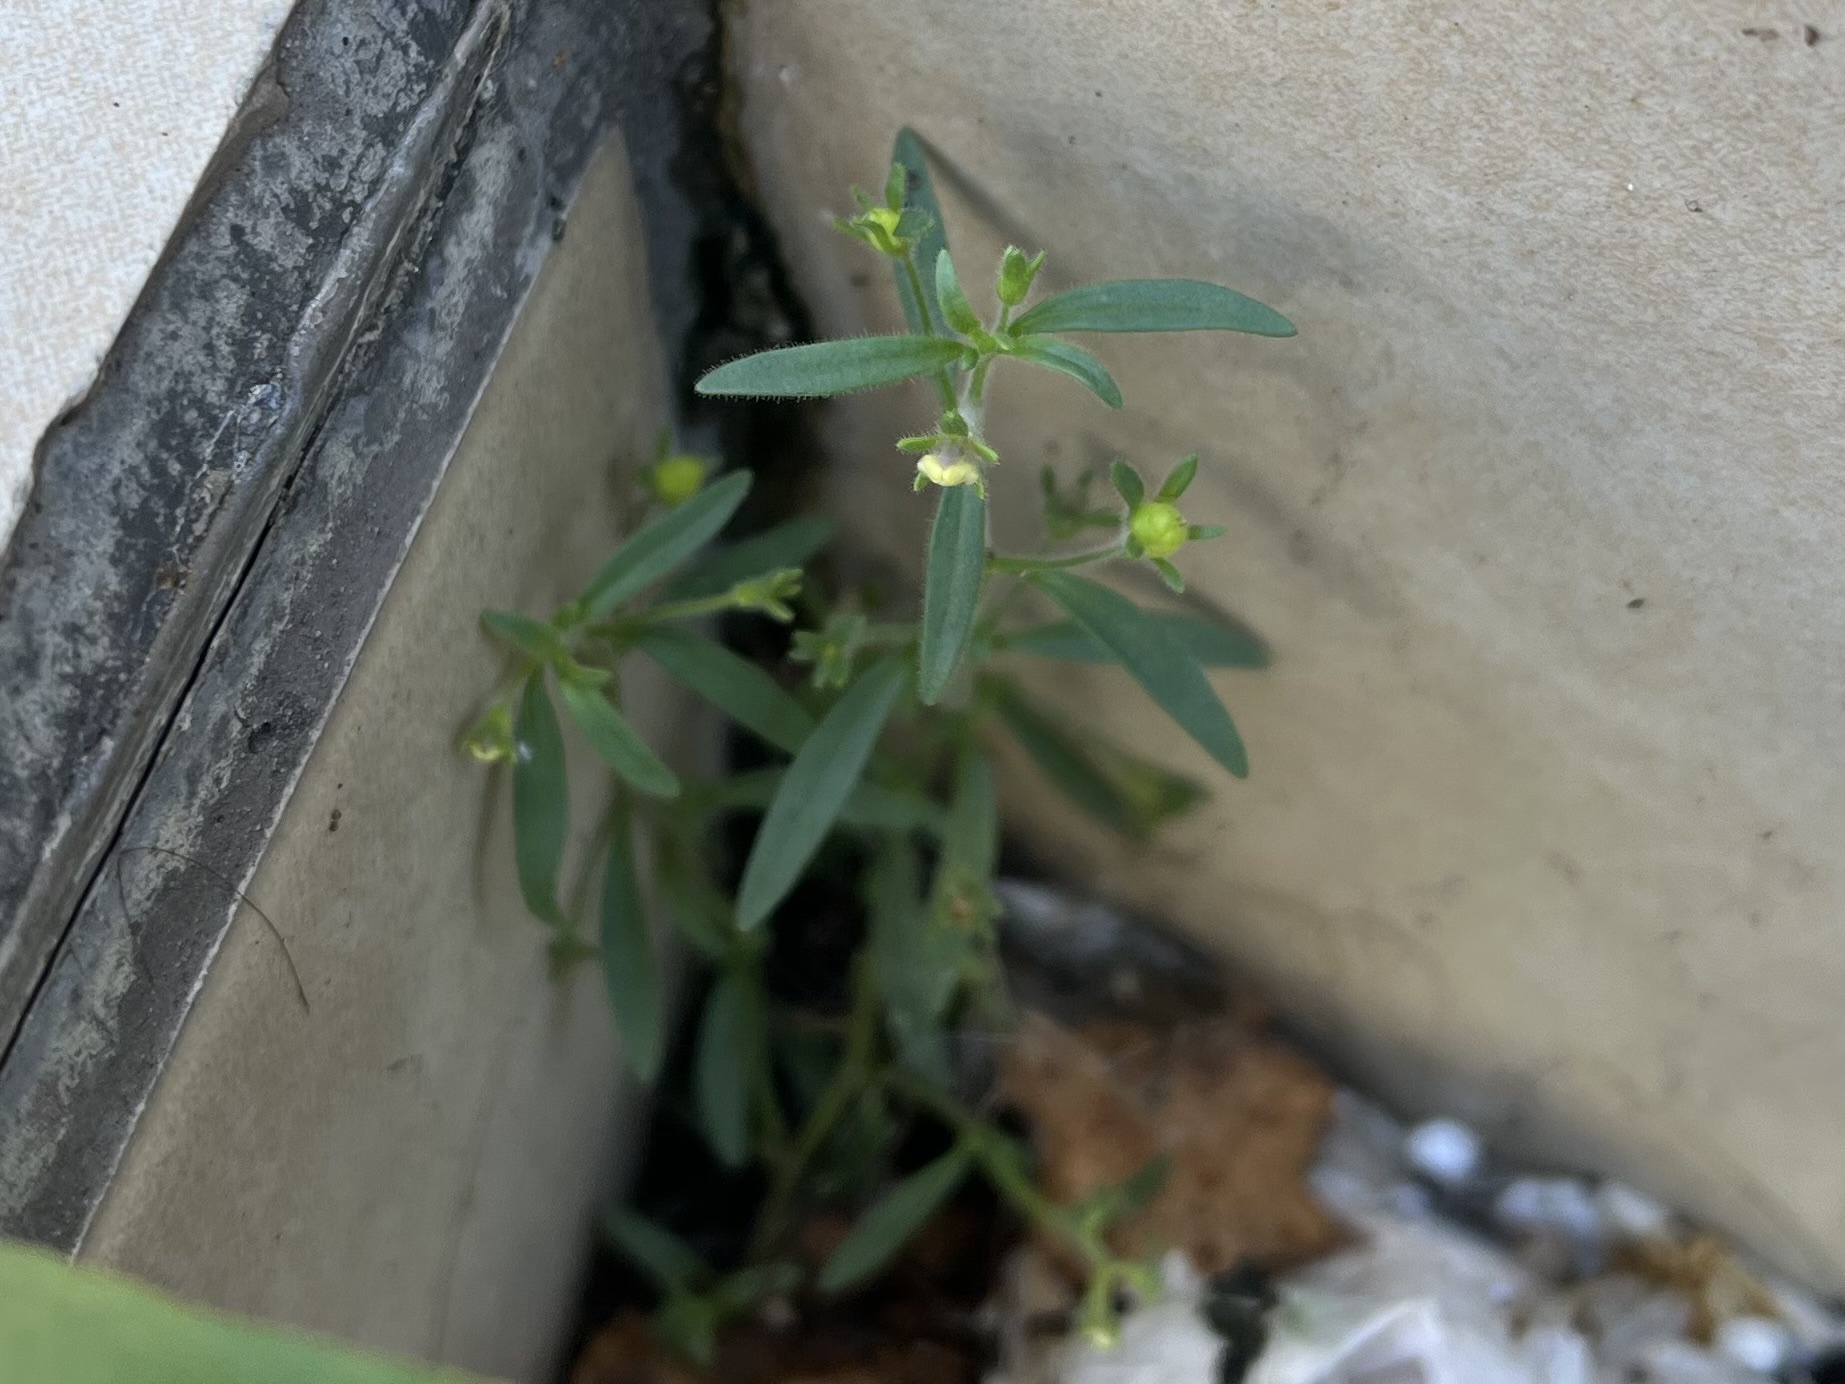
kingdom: Plantae
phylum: Tracheophyta
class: Magnoliopsida
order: Lamiales
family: Plantaginaceae
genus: Chaenorhinum
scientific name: Chaenorhinum minus
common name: Dwarf snapdragon
